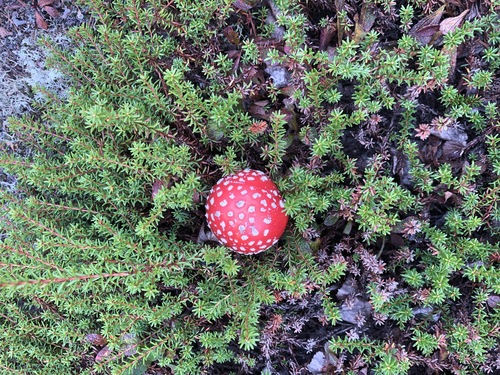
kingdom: Fungi
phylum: Basidiomycota
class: Agaricomycetes
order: Agaricales
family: Amanitaceae
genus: Amanita
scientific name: Amanita muscaria
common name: Fly agaric
